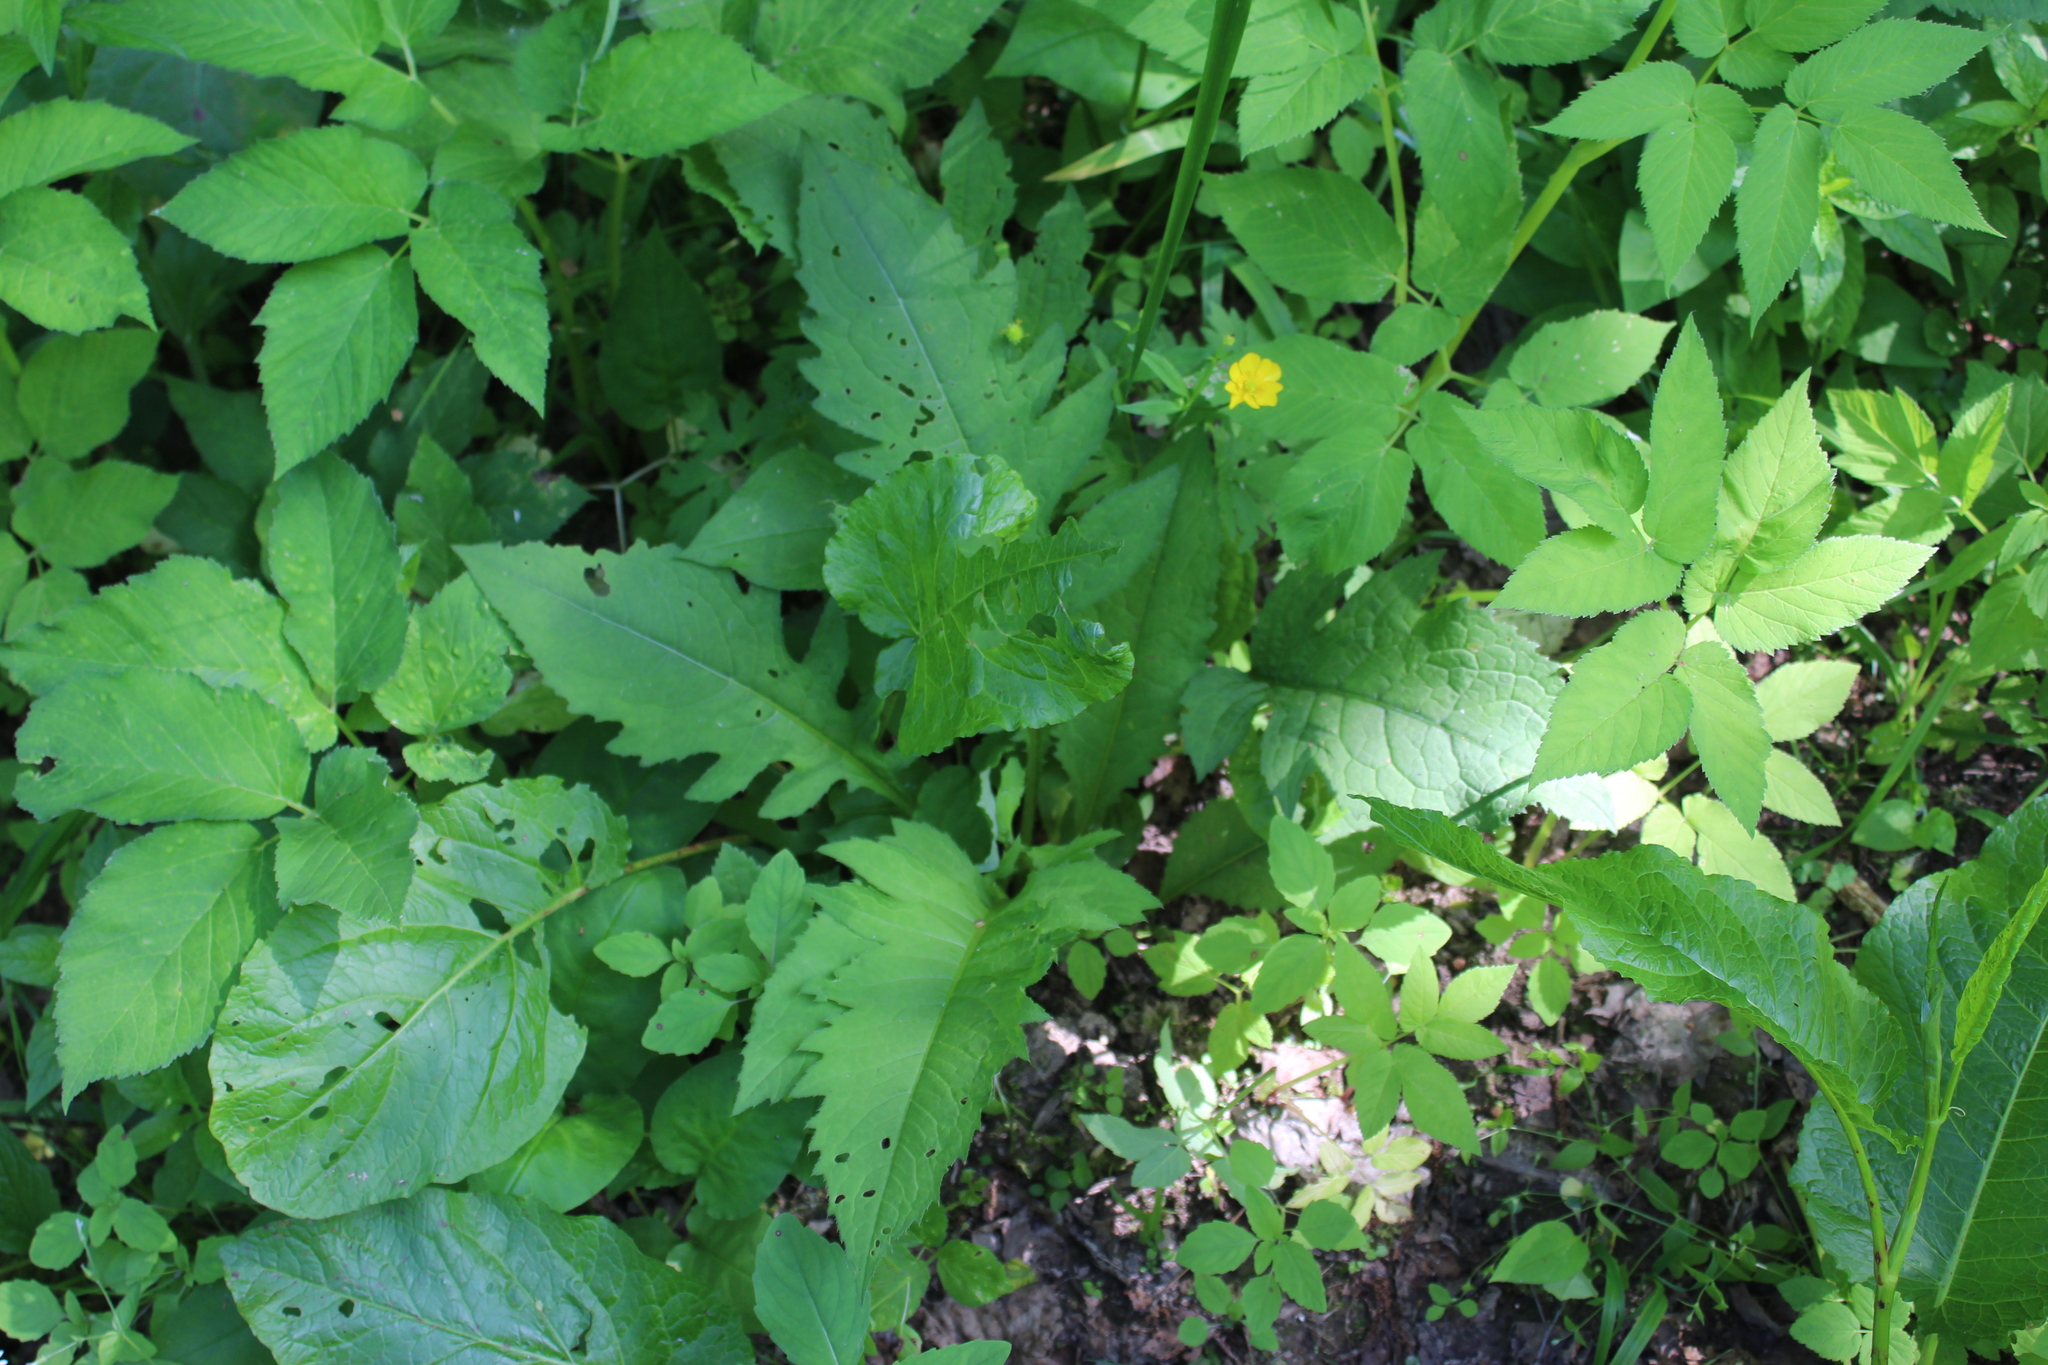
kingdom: Plantae
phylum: Tracheophyta
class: Magnoliopsida
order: Asterales
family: Asteraceae
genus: Cirsium
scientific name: Cirsium oleraceum
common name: Cabbage thistle
